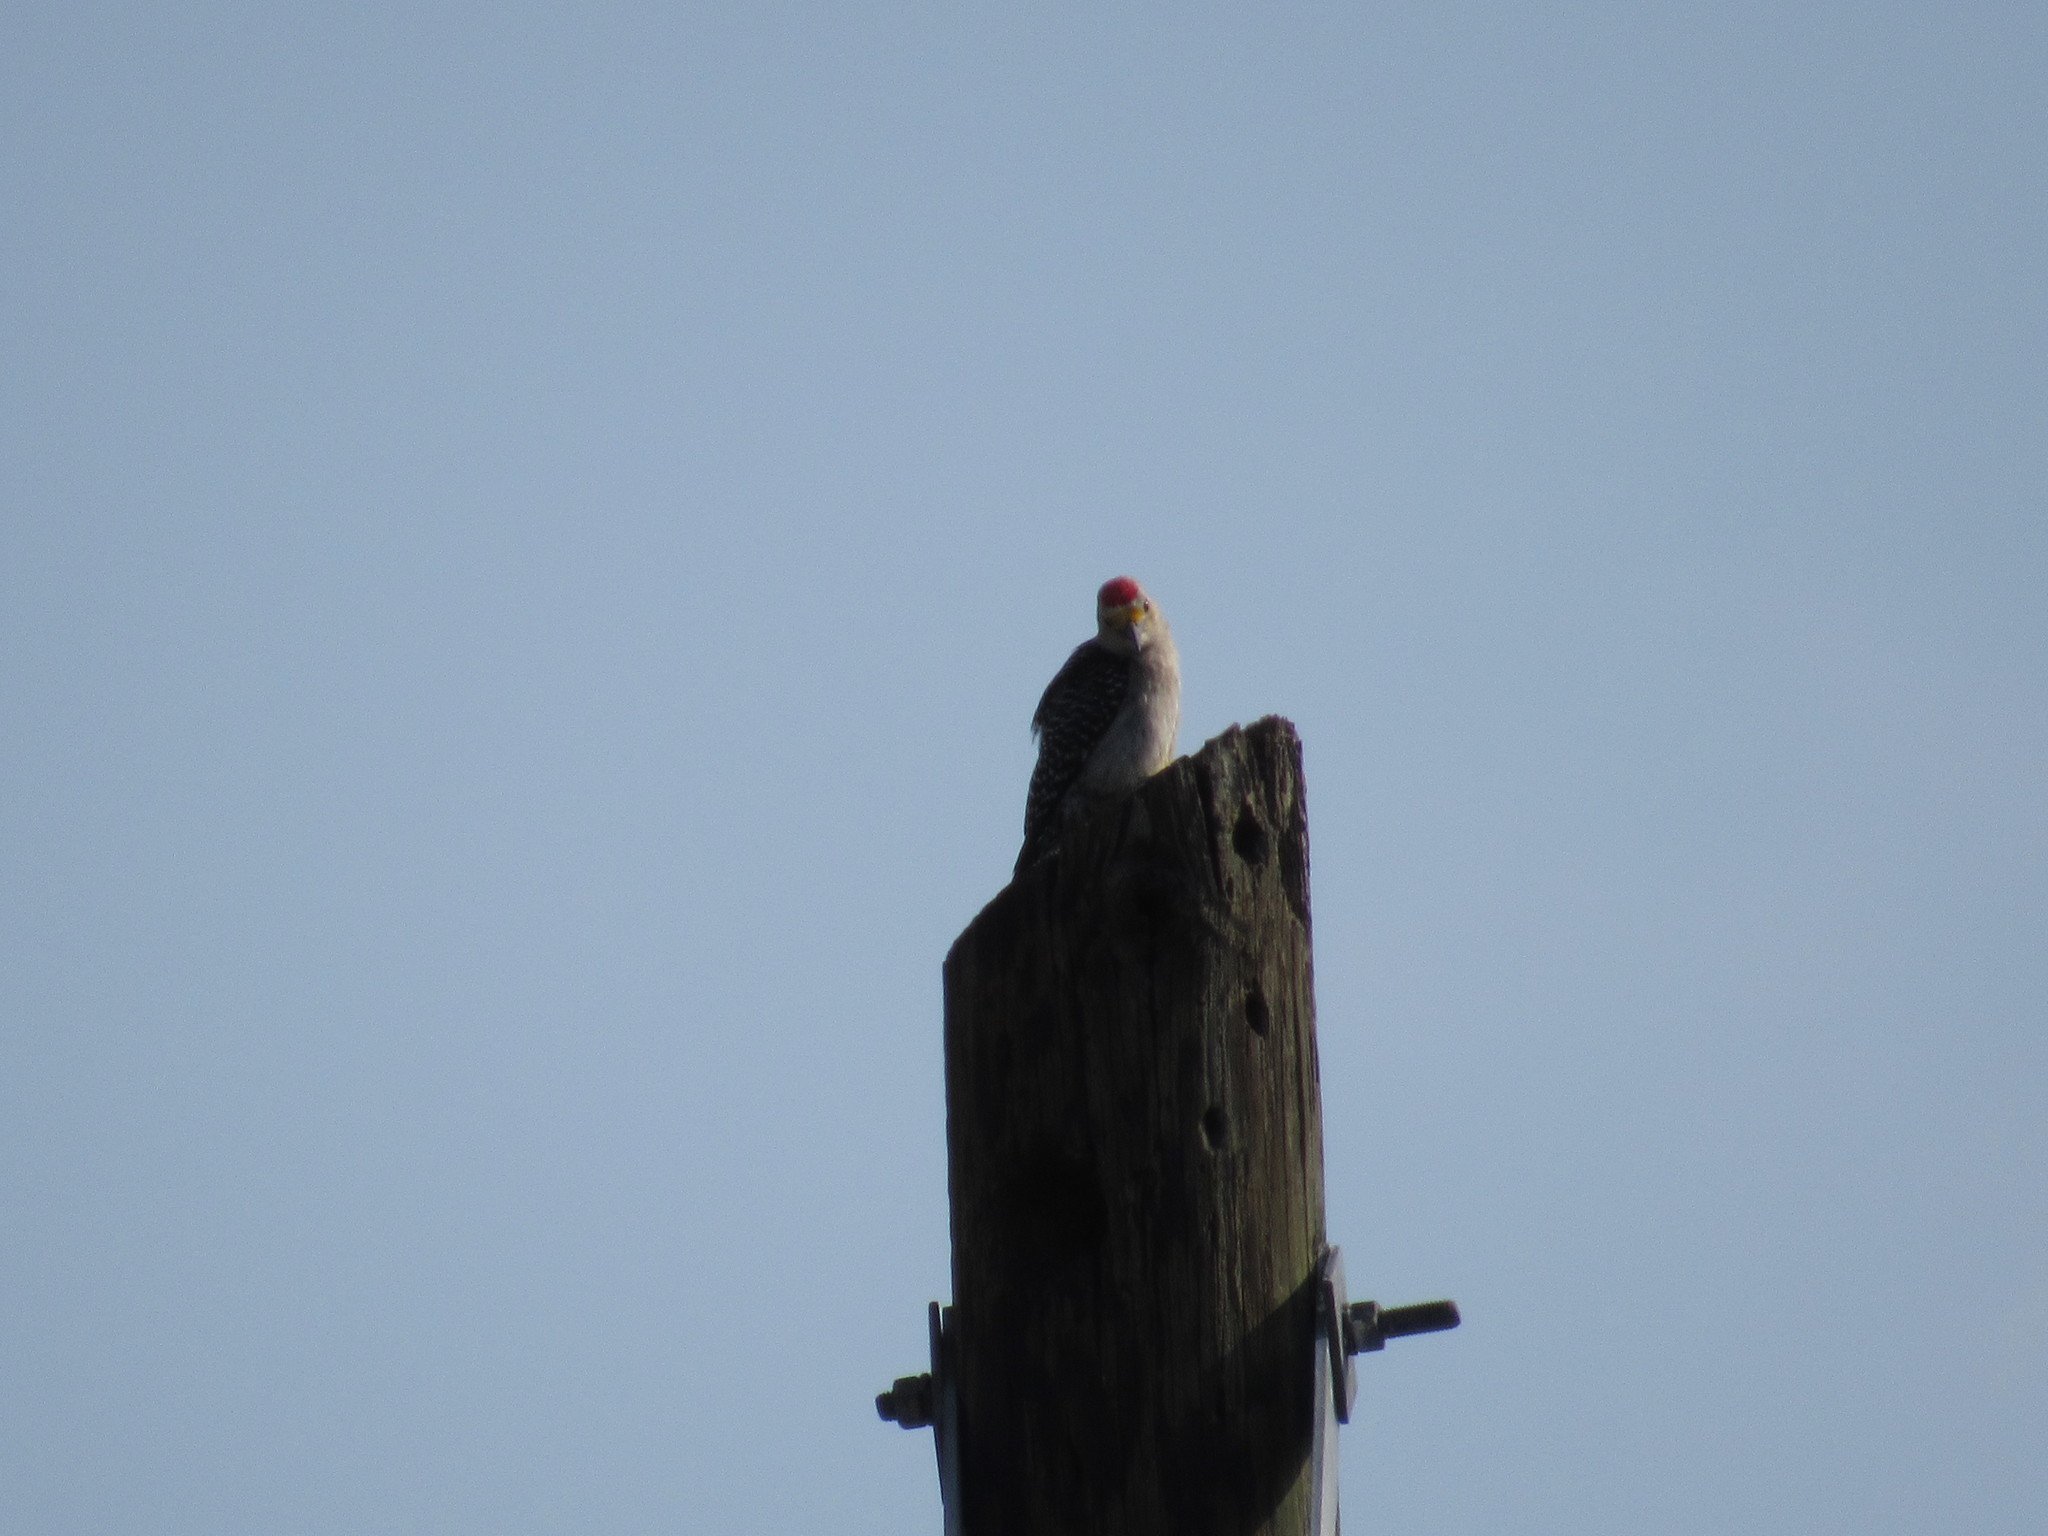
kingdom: Animalia
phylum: Chordata
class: Aves
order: Piciformes
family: Picidae
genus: Melanerpes
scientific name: Melanerpes aurifrons
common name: Golden-fronted woodpecker
